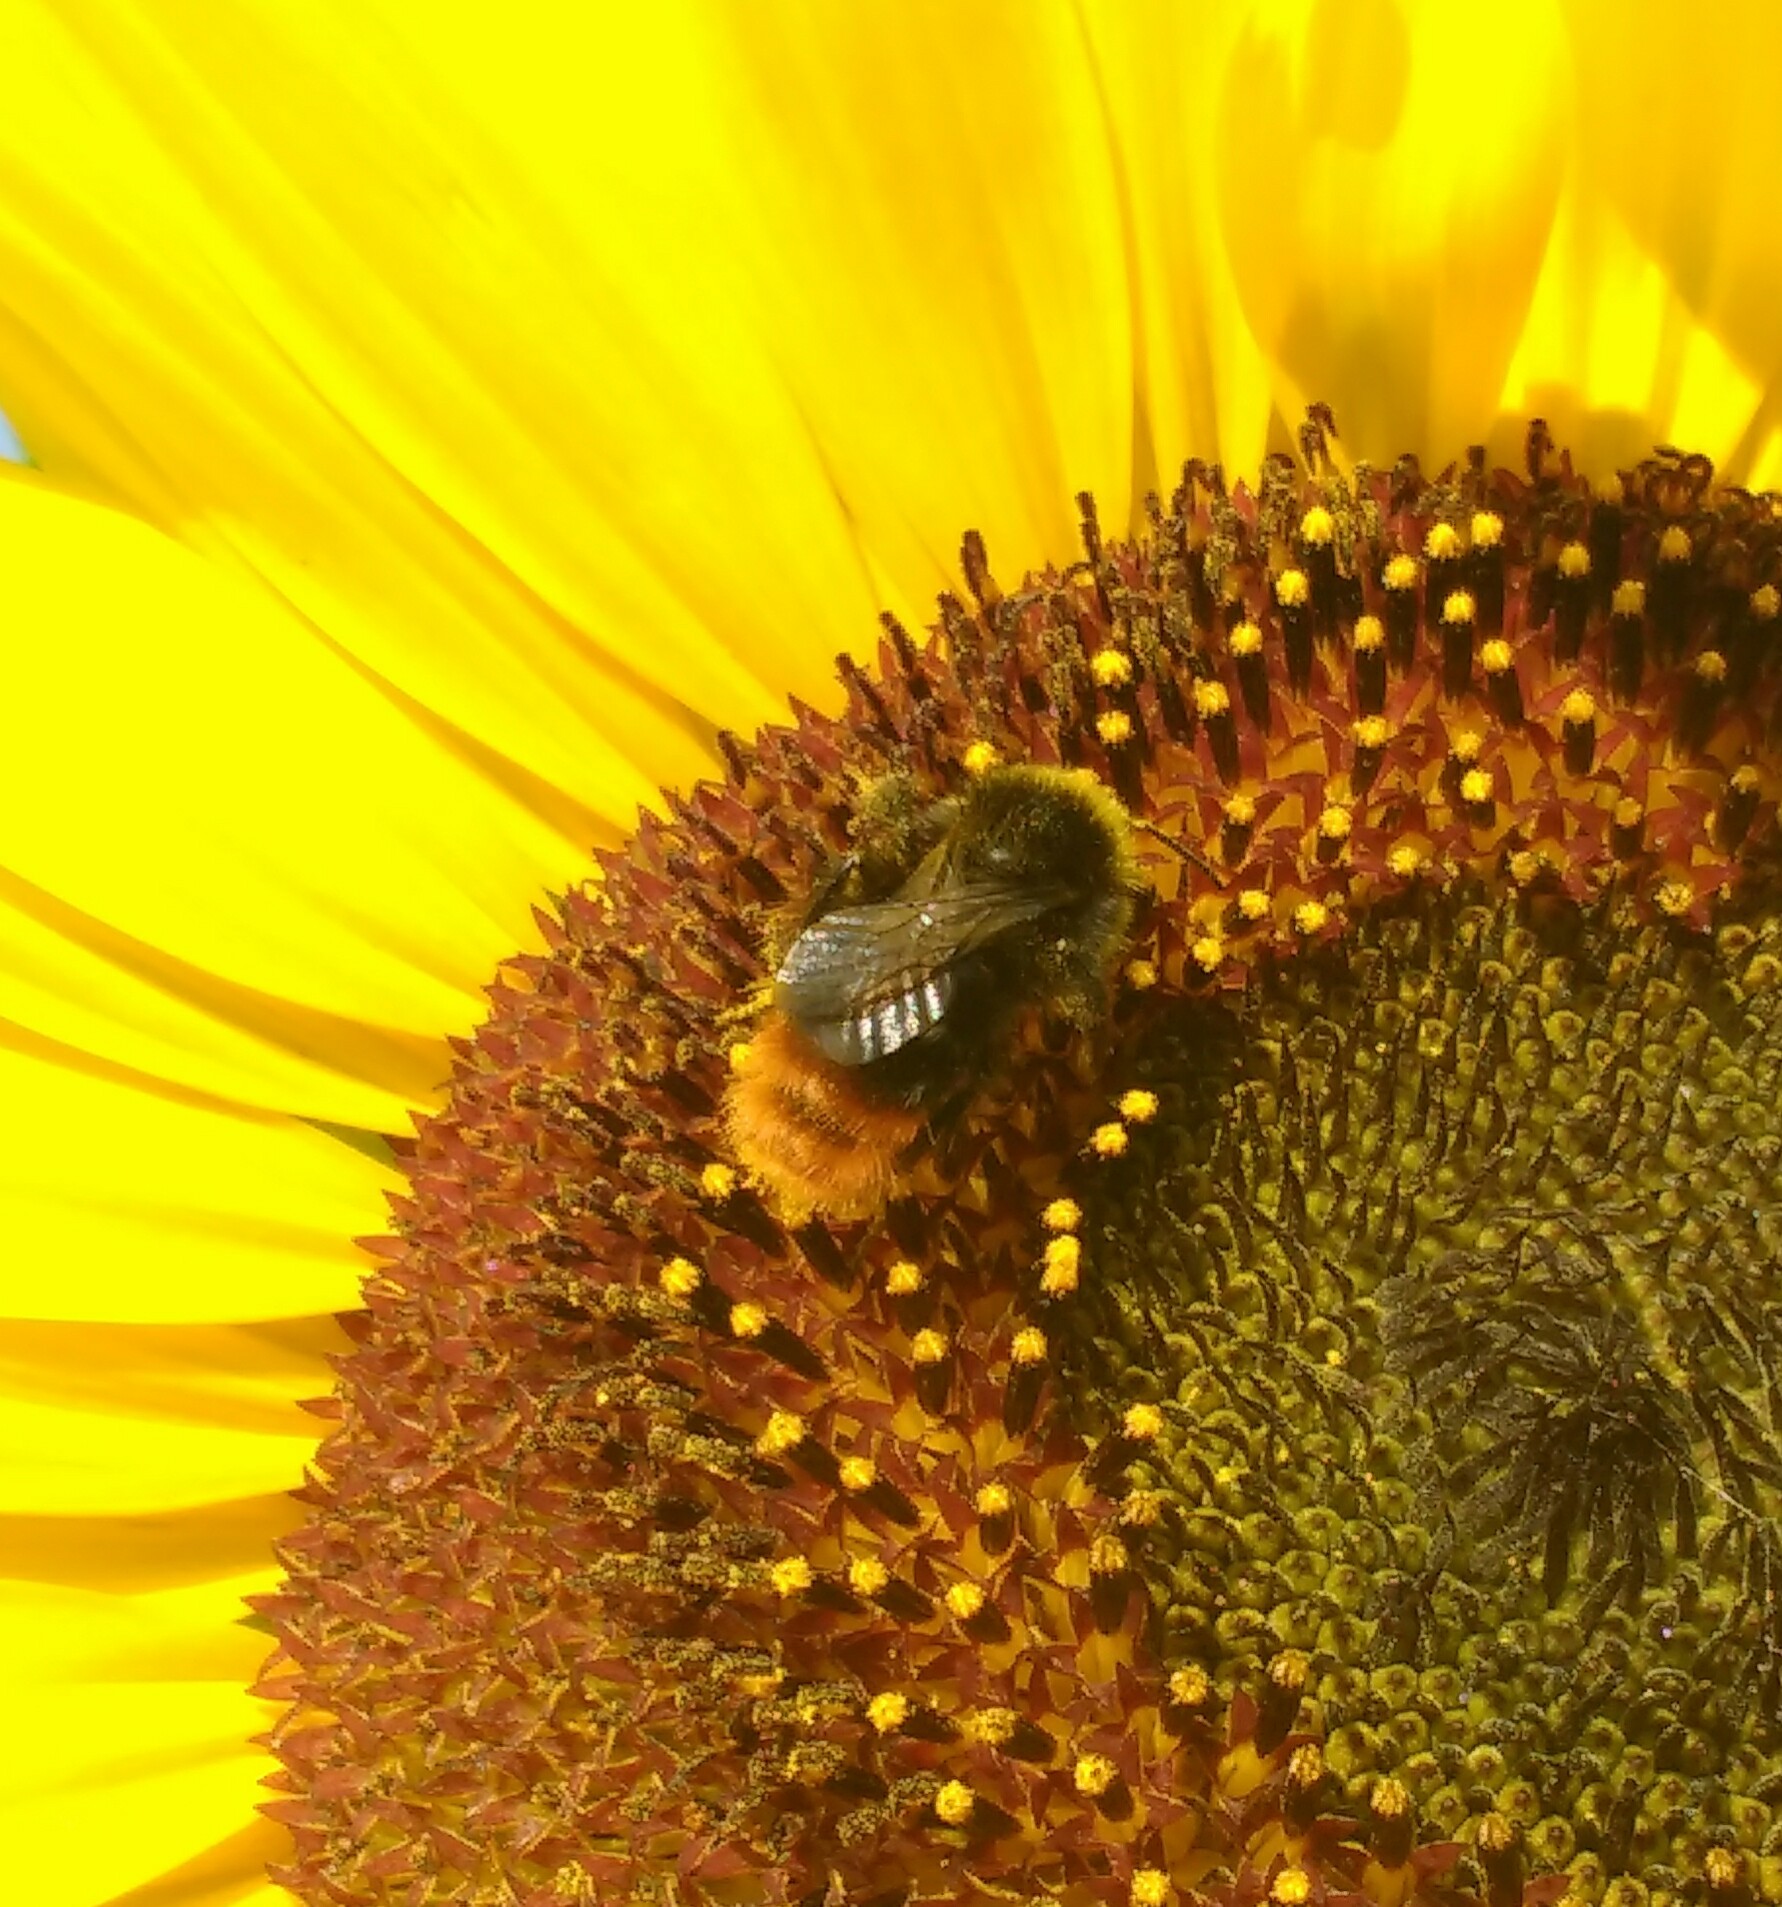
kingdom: Animalia
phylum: Arthropoda
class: Insecta
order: Hymenoptera
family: Apidae
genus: Bombus
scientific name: Bombus lapidarius
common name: Large red-tailed humble-bee
